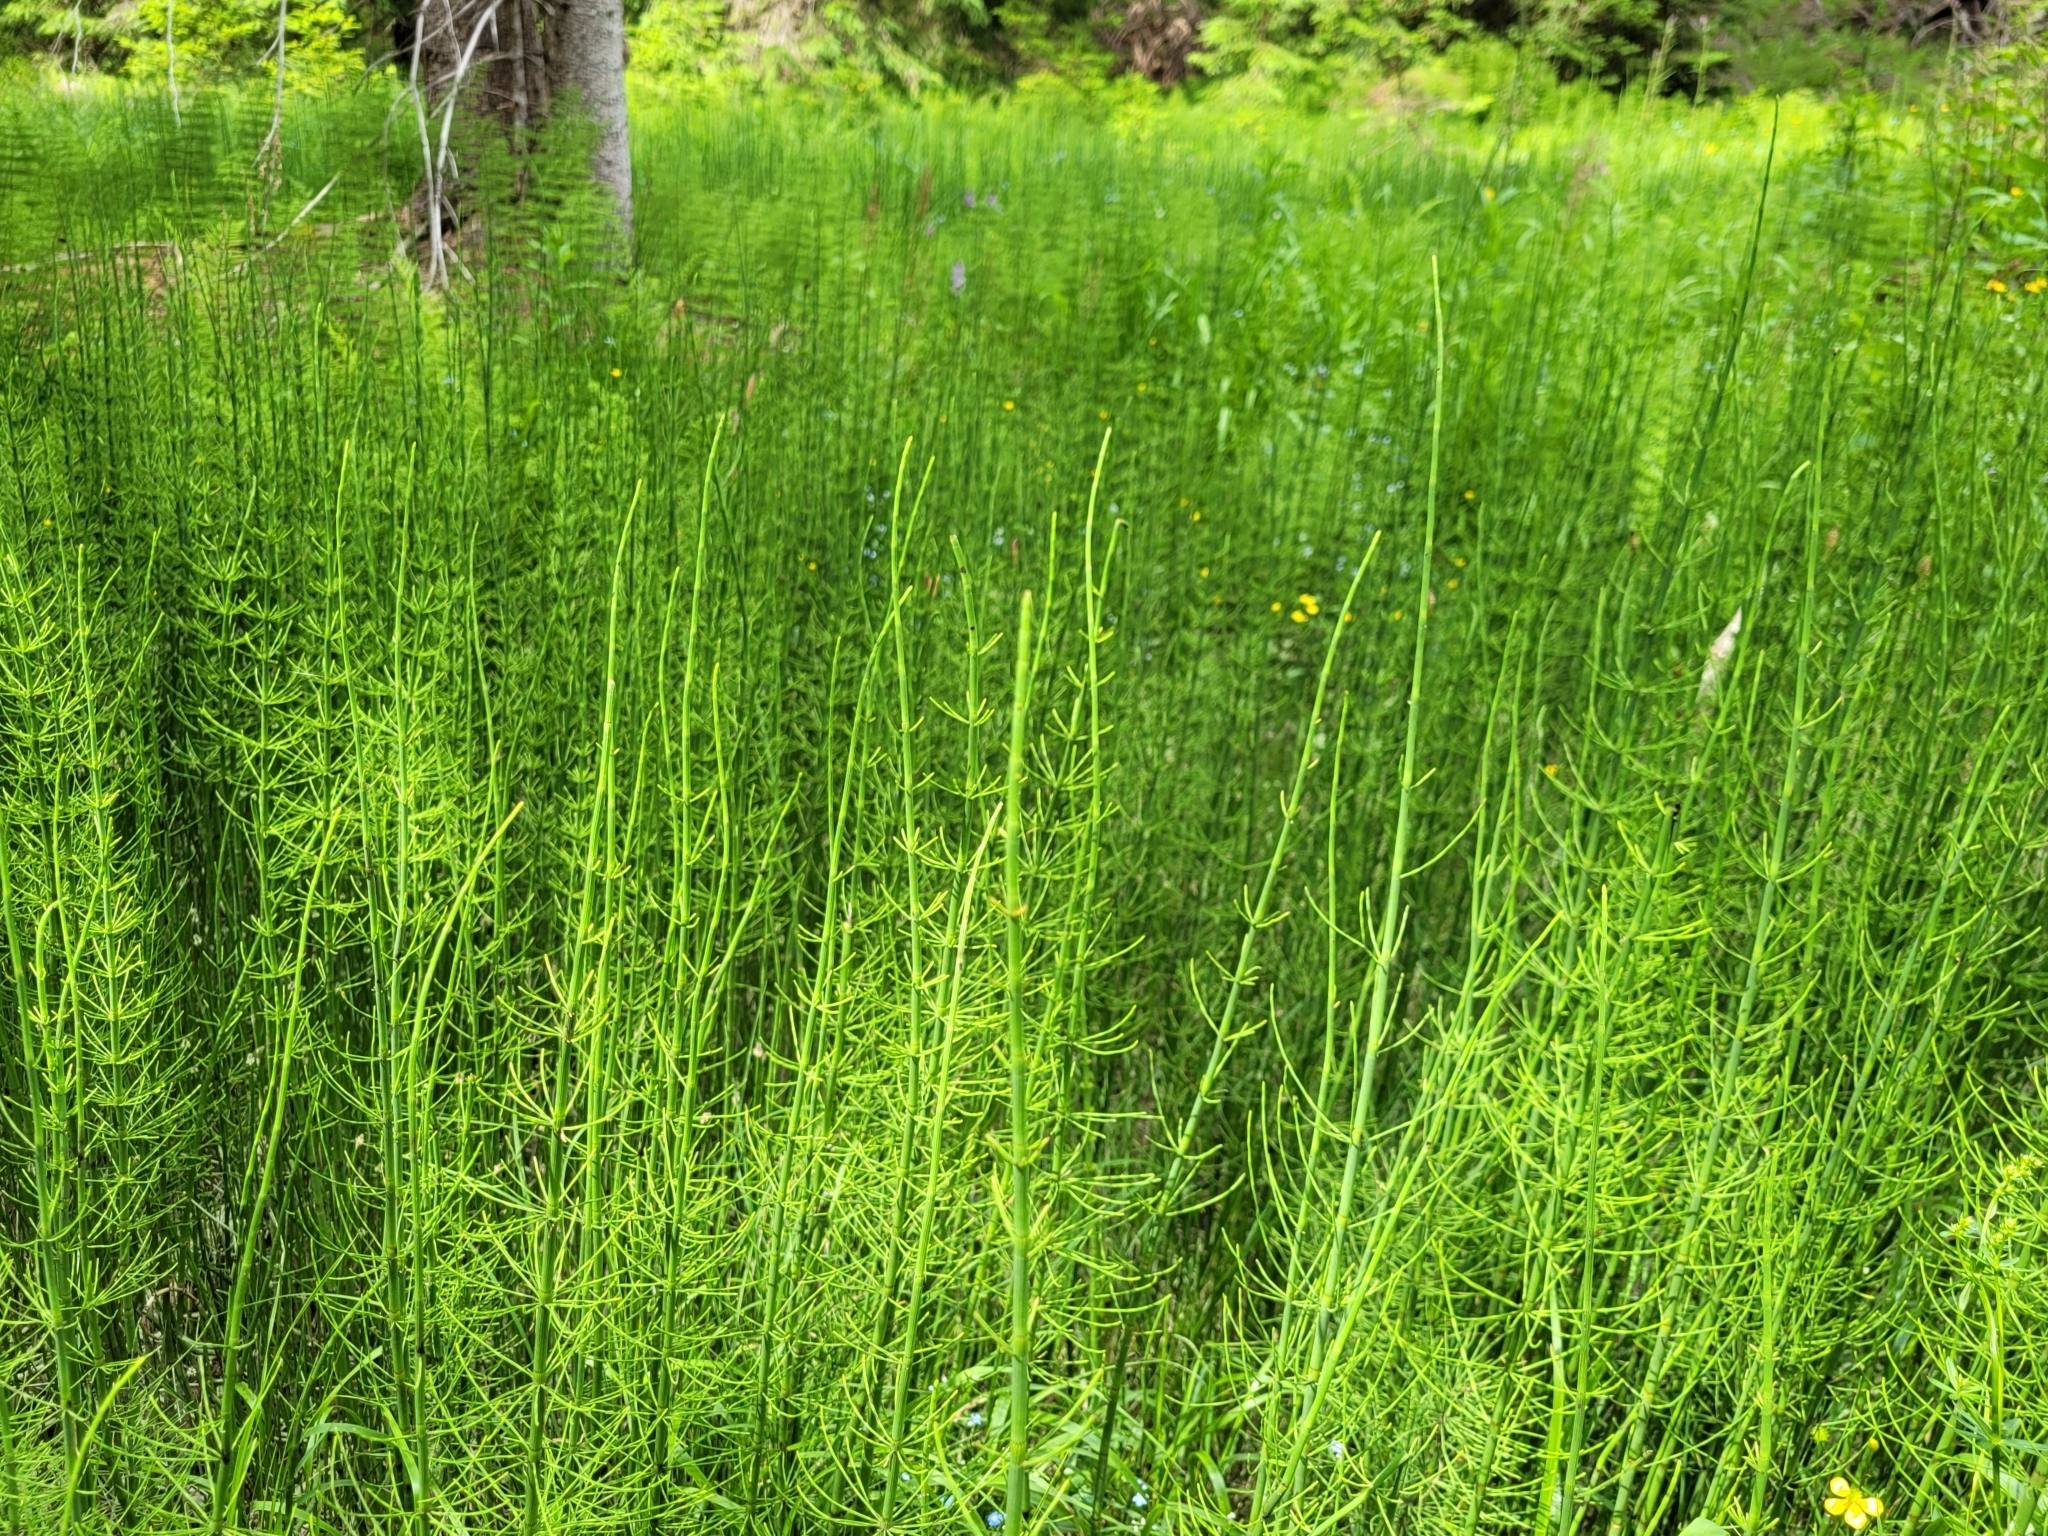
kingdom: Plantae
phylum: Tracheophyta
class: Polypodiopsida
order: Equisetales
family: Equisetaceae
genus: Equisetum
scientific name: Equisetum fluviatile
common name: Water horsetail
